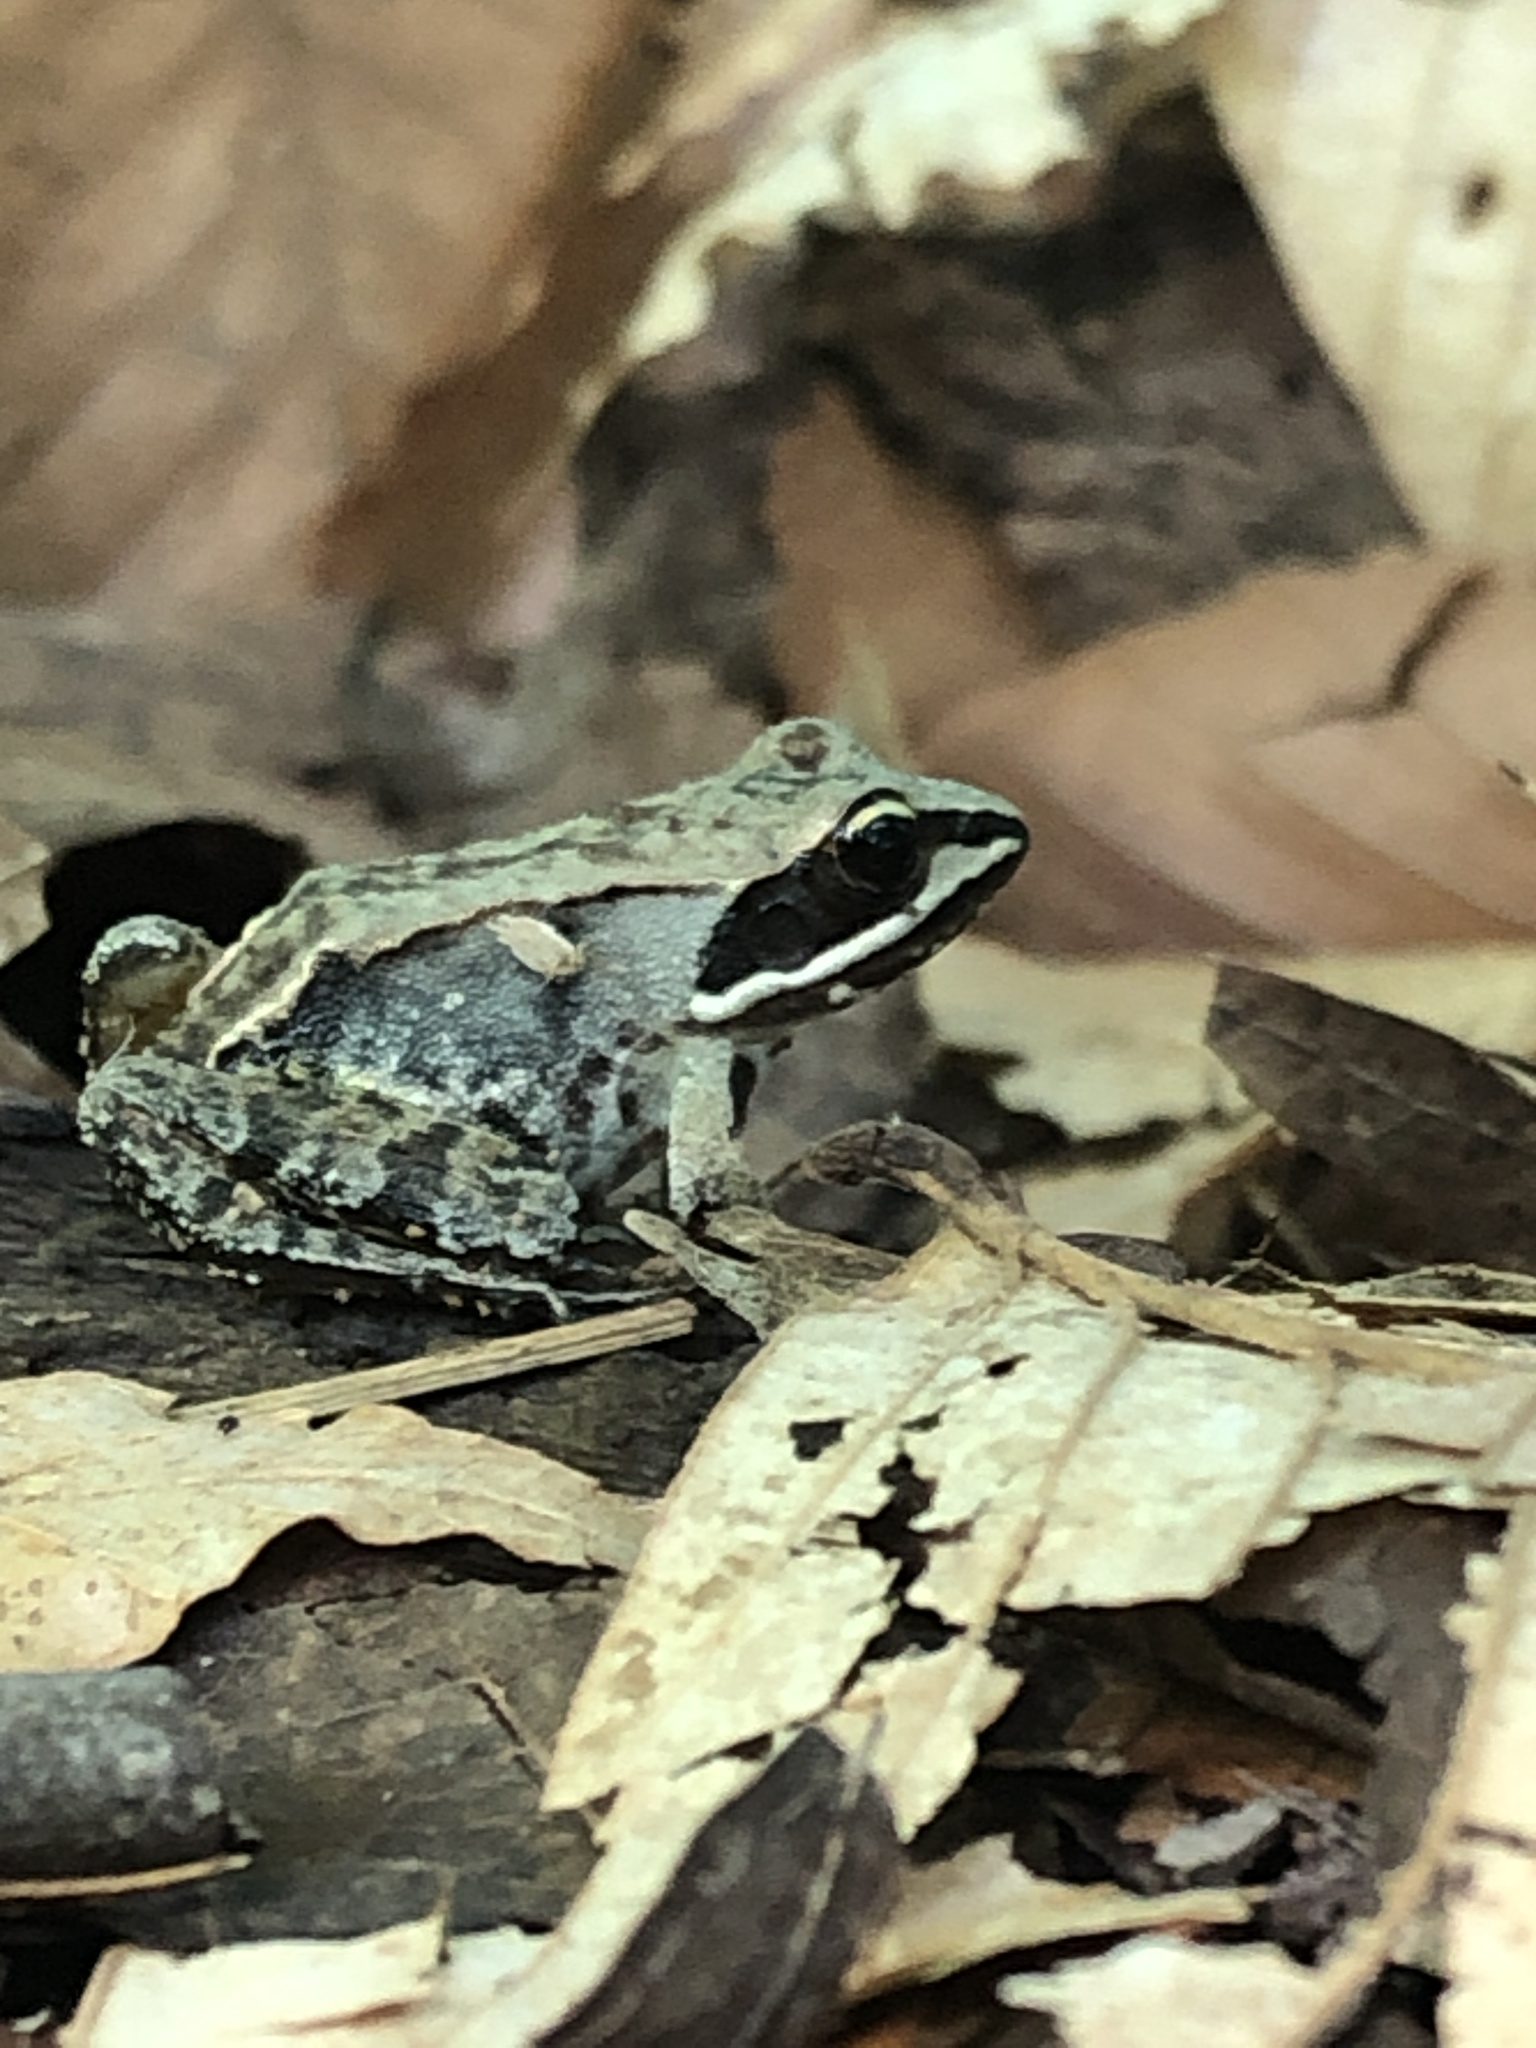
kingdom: Animalia
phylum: Chordata
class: Amphibia
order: Anura
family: Ranidae
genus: Lithobates
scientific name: Lithobates sylvaticus
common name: Wood frog
